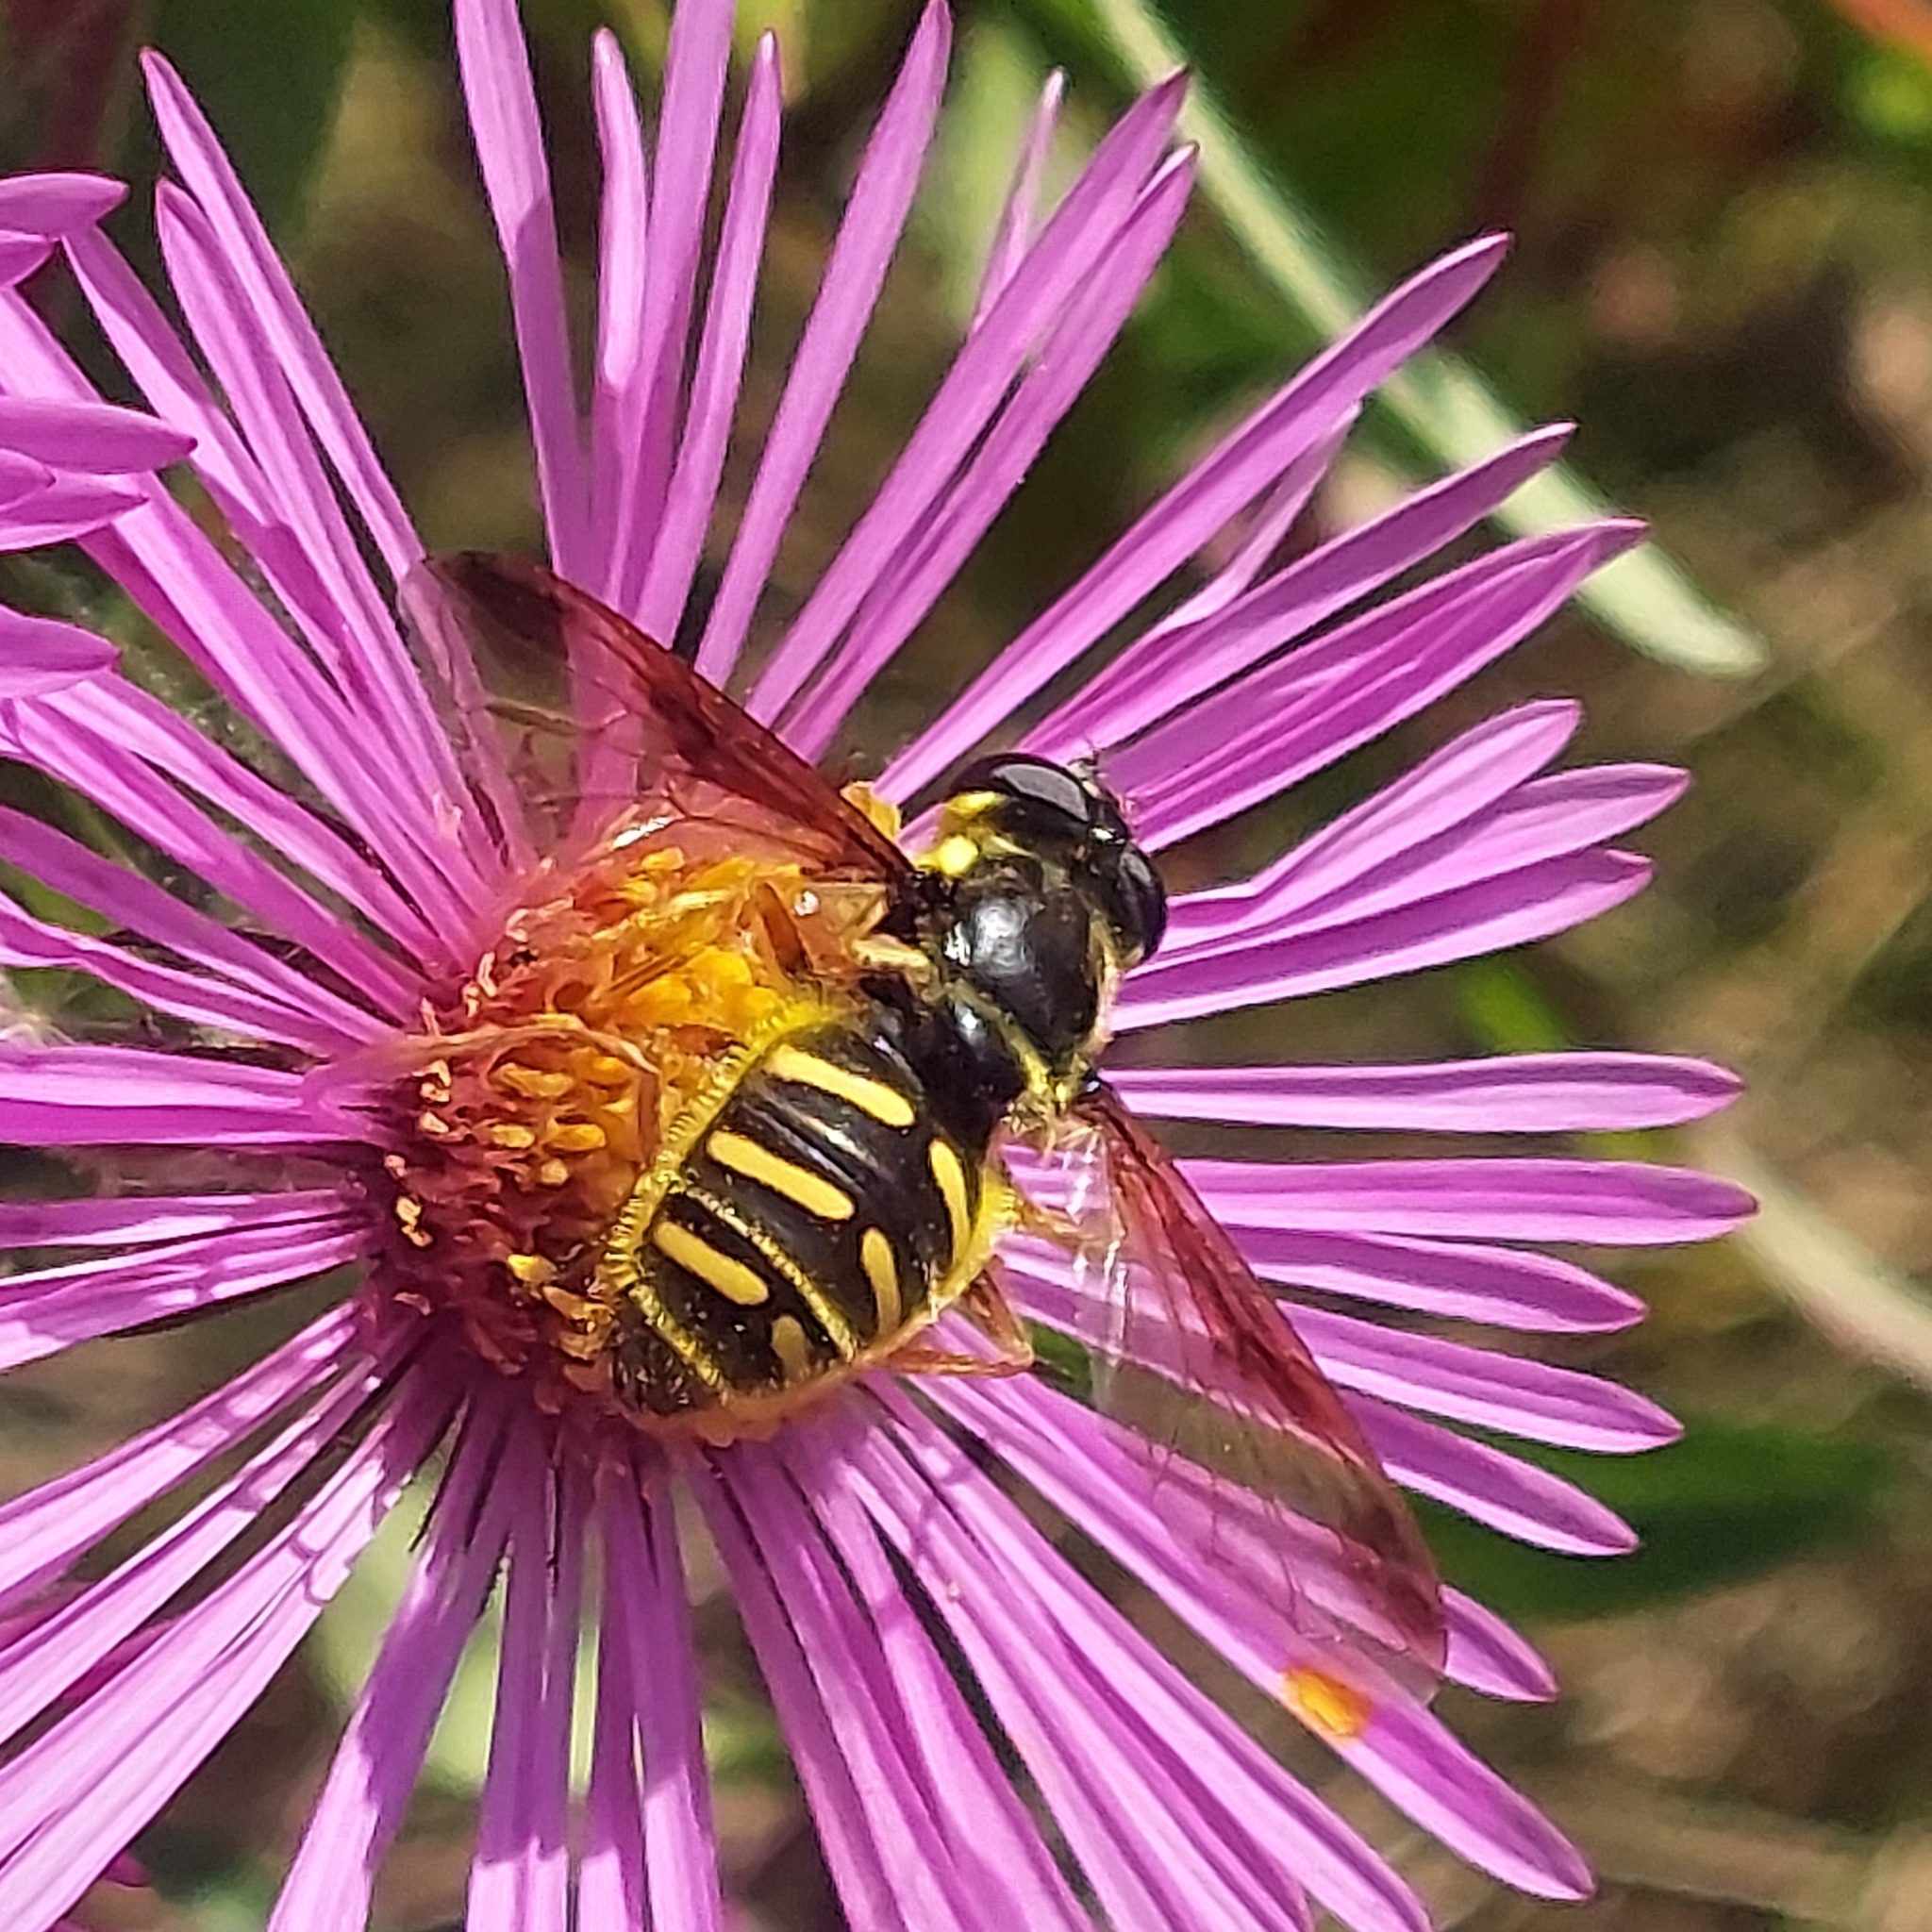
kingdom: Animalia
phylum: Arthropoda
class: Insecta
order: Diptera
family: Syrphidae
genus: Sericomyia
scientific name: Sericomyia chrysotoxoides
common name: Oblique-banded pond fly
